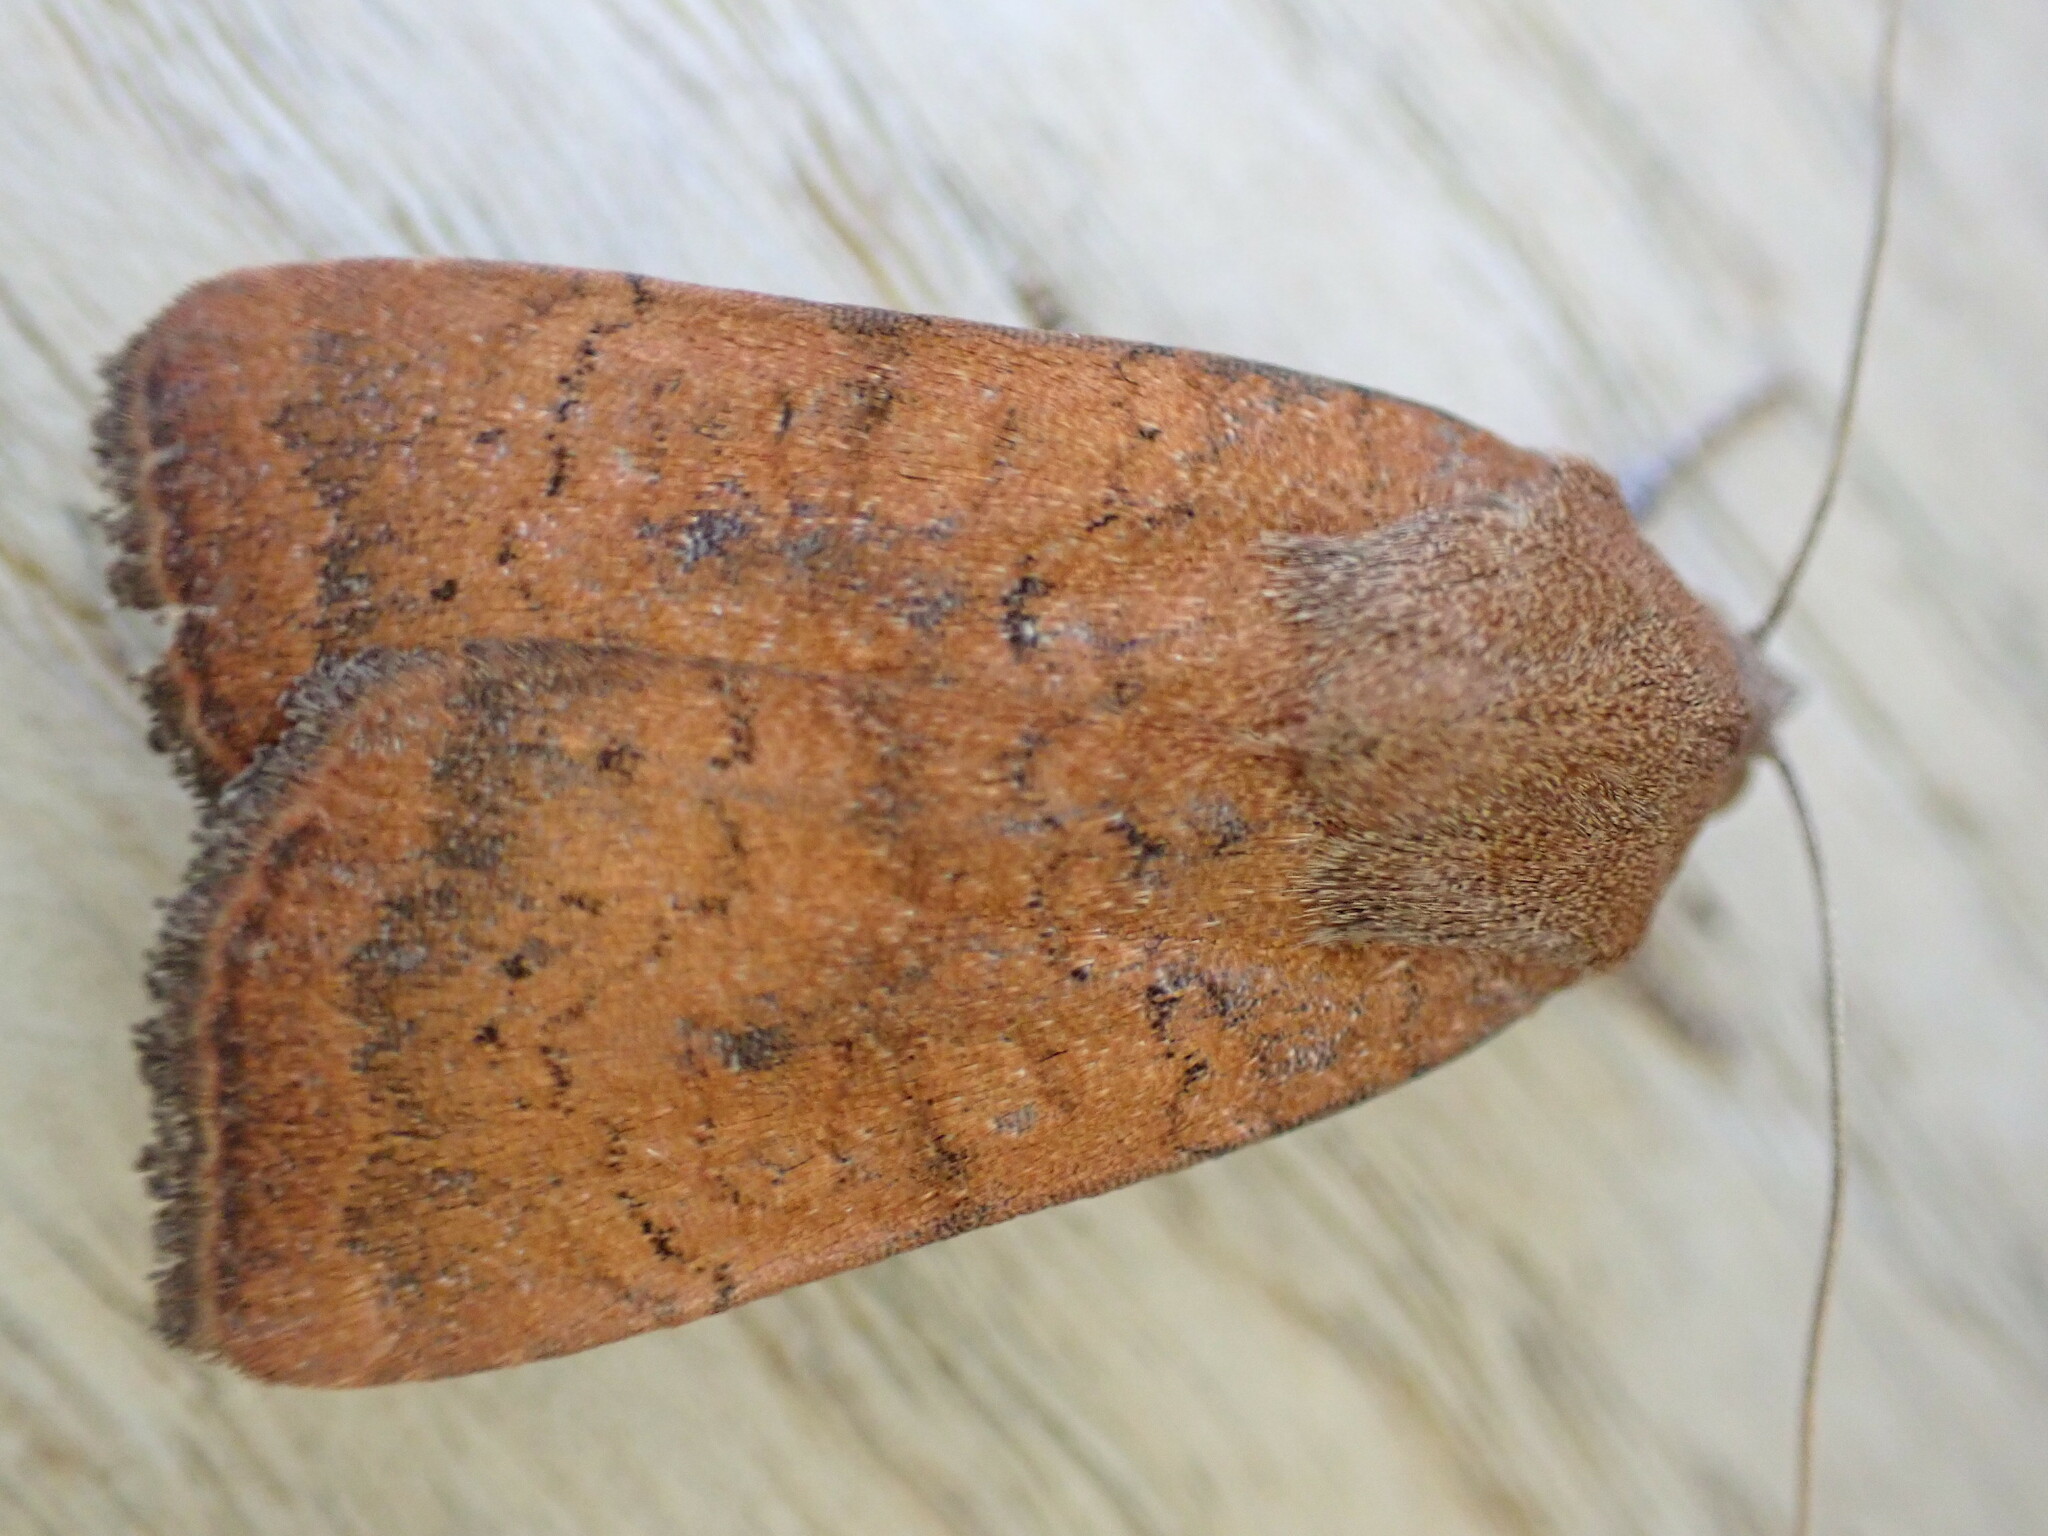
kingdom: Animalia
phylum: Arthropoda
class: Insecta
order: Lepidoptera
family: Noctuidae
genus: Noctua
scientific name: Noctua interjecta
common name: Least yellow underwing
